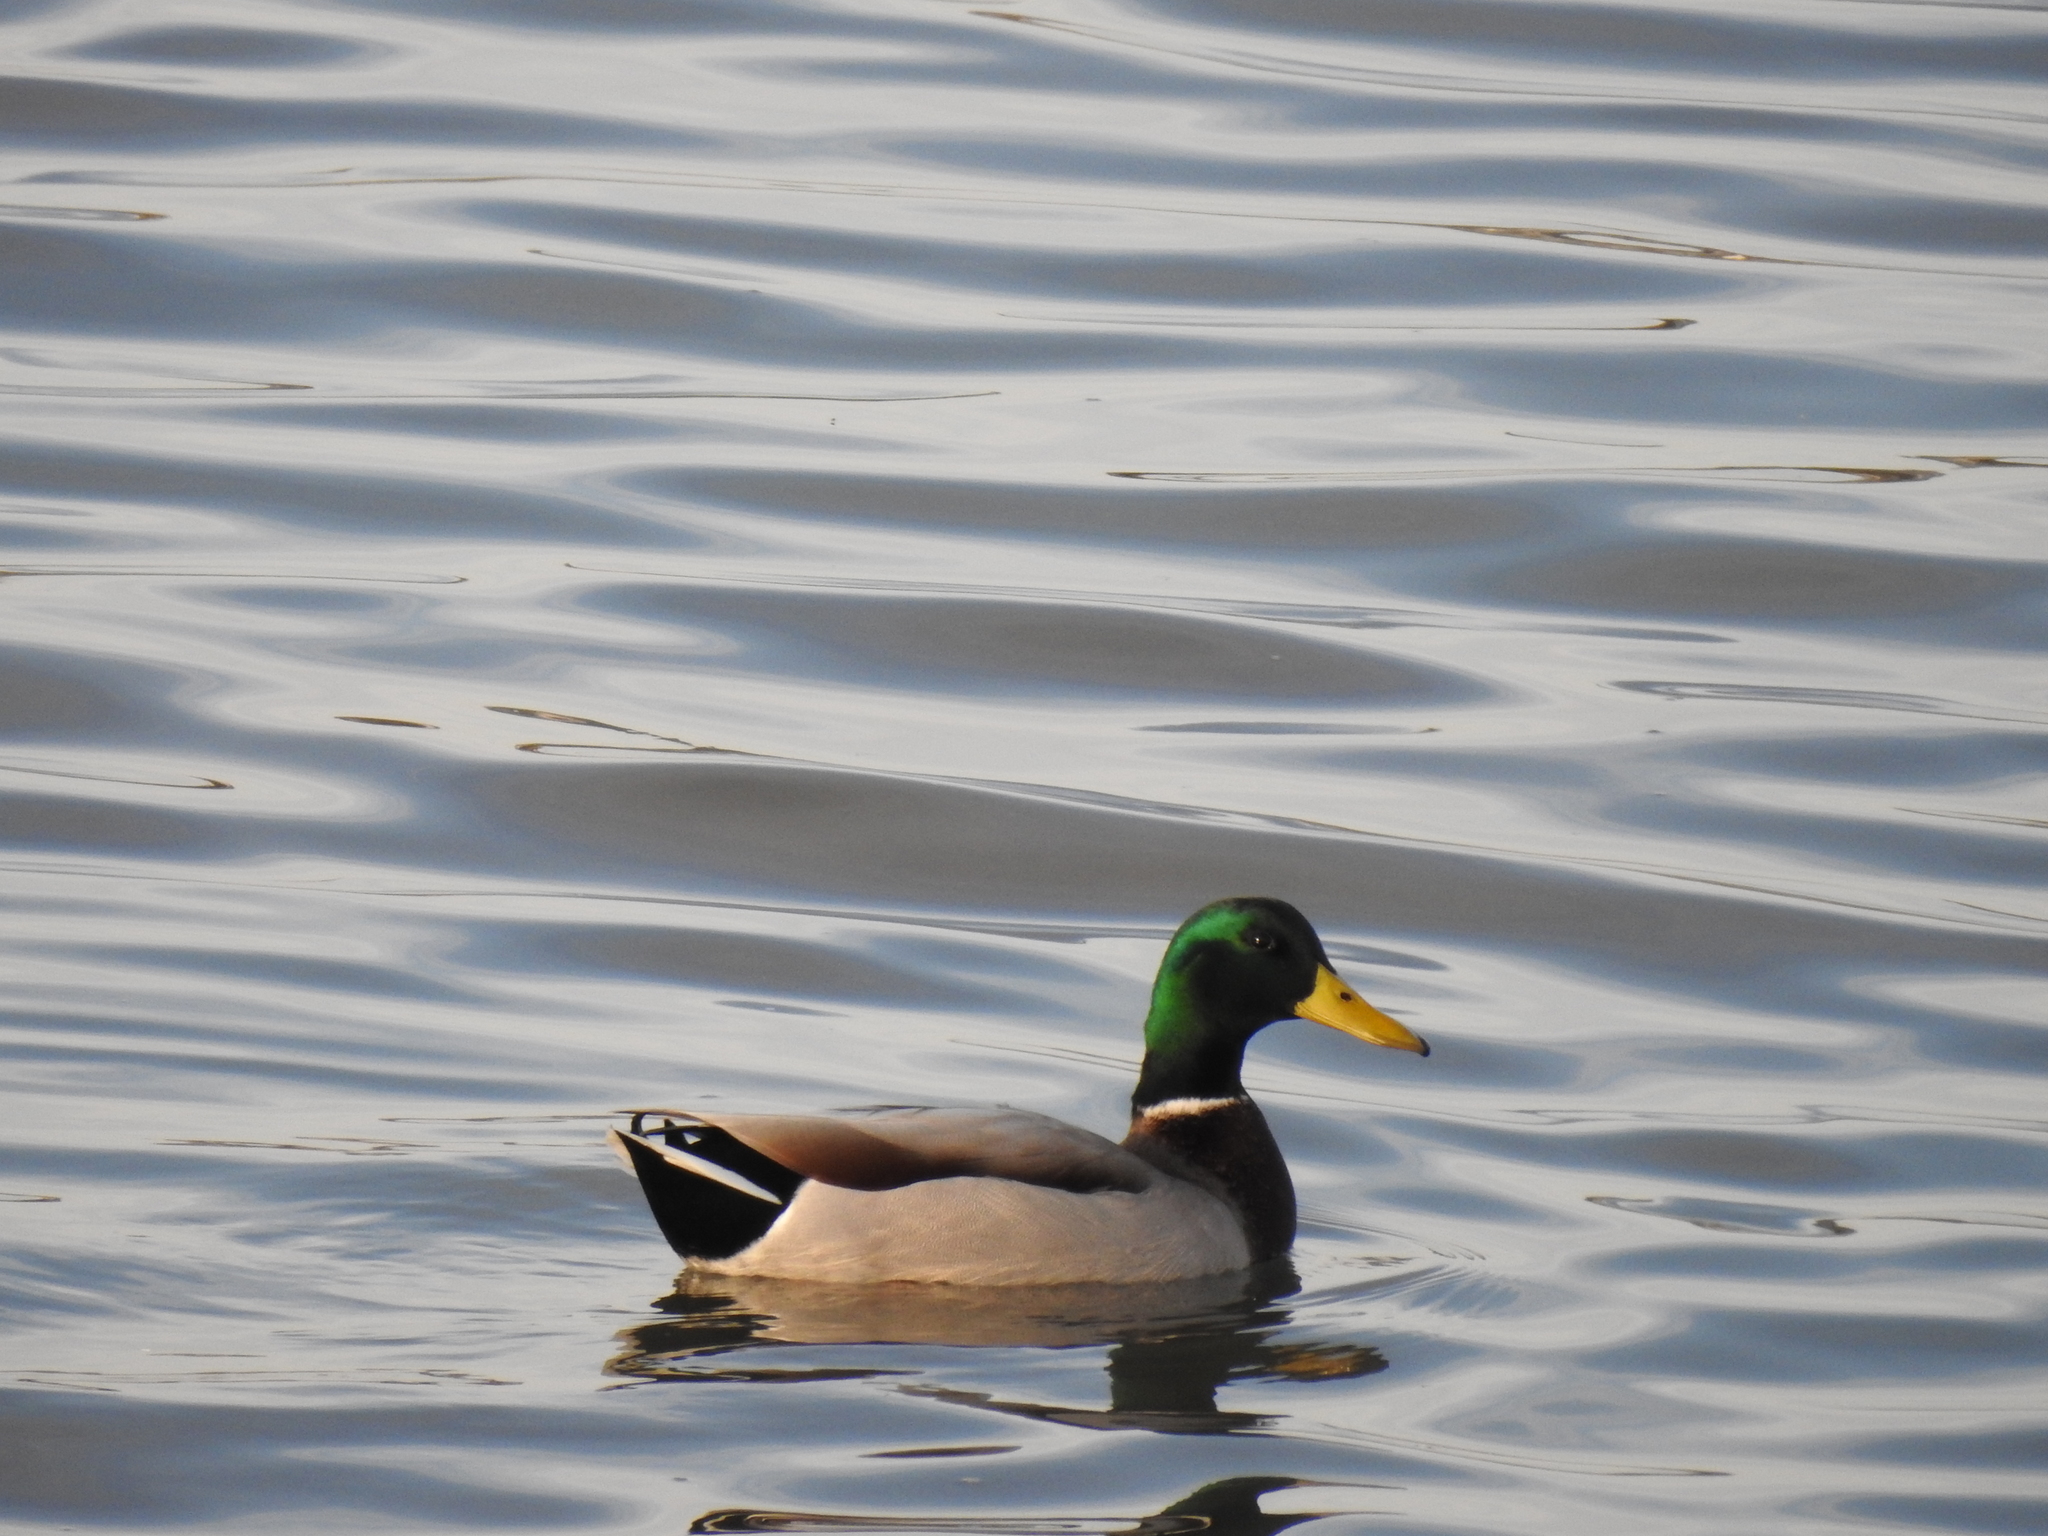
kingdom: Animalia
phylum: Chordata
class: Aves
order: Anseriformes
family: Anatidae
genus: Anas
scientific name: Anas platyrhynchos
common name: Mallard
